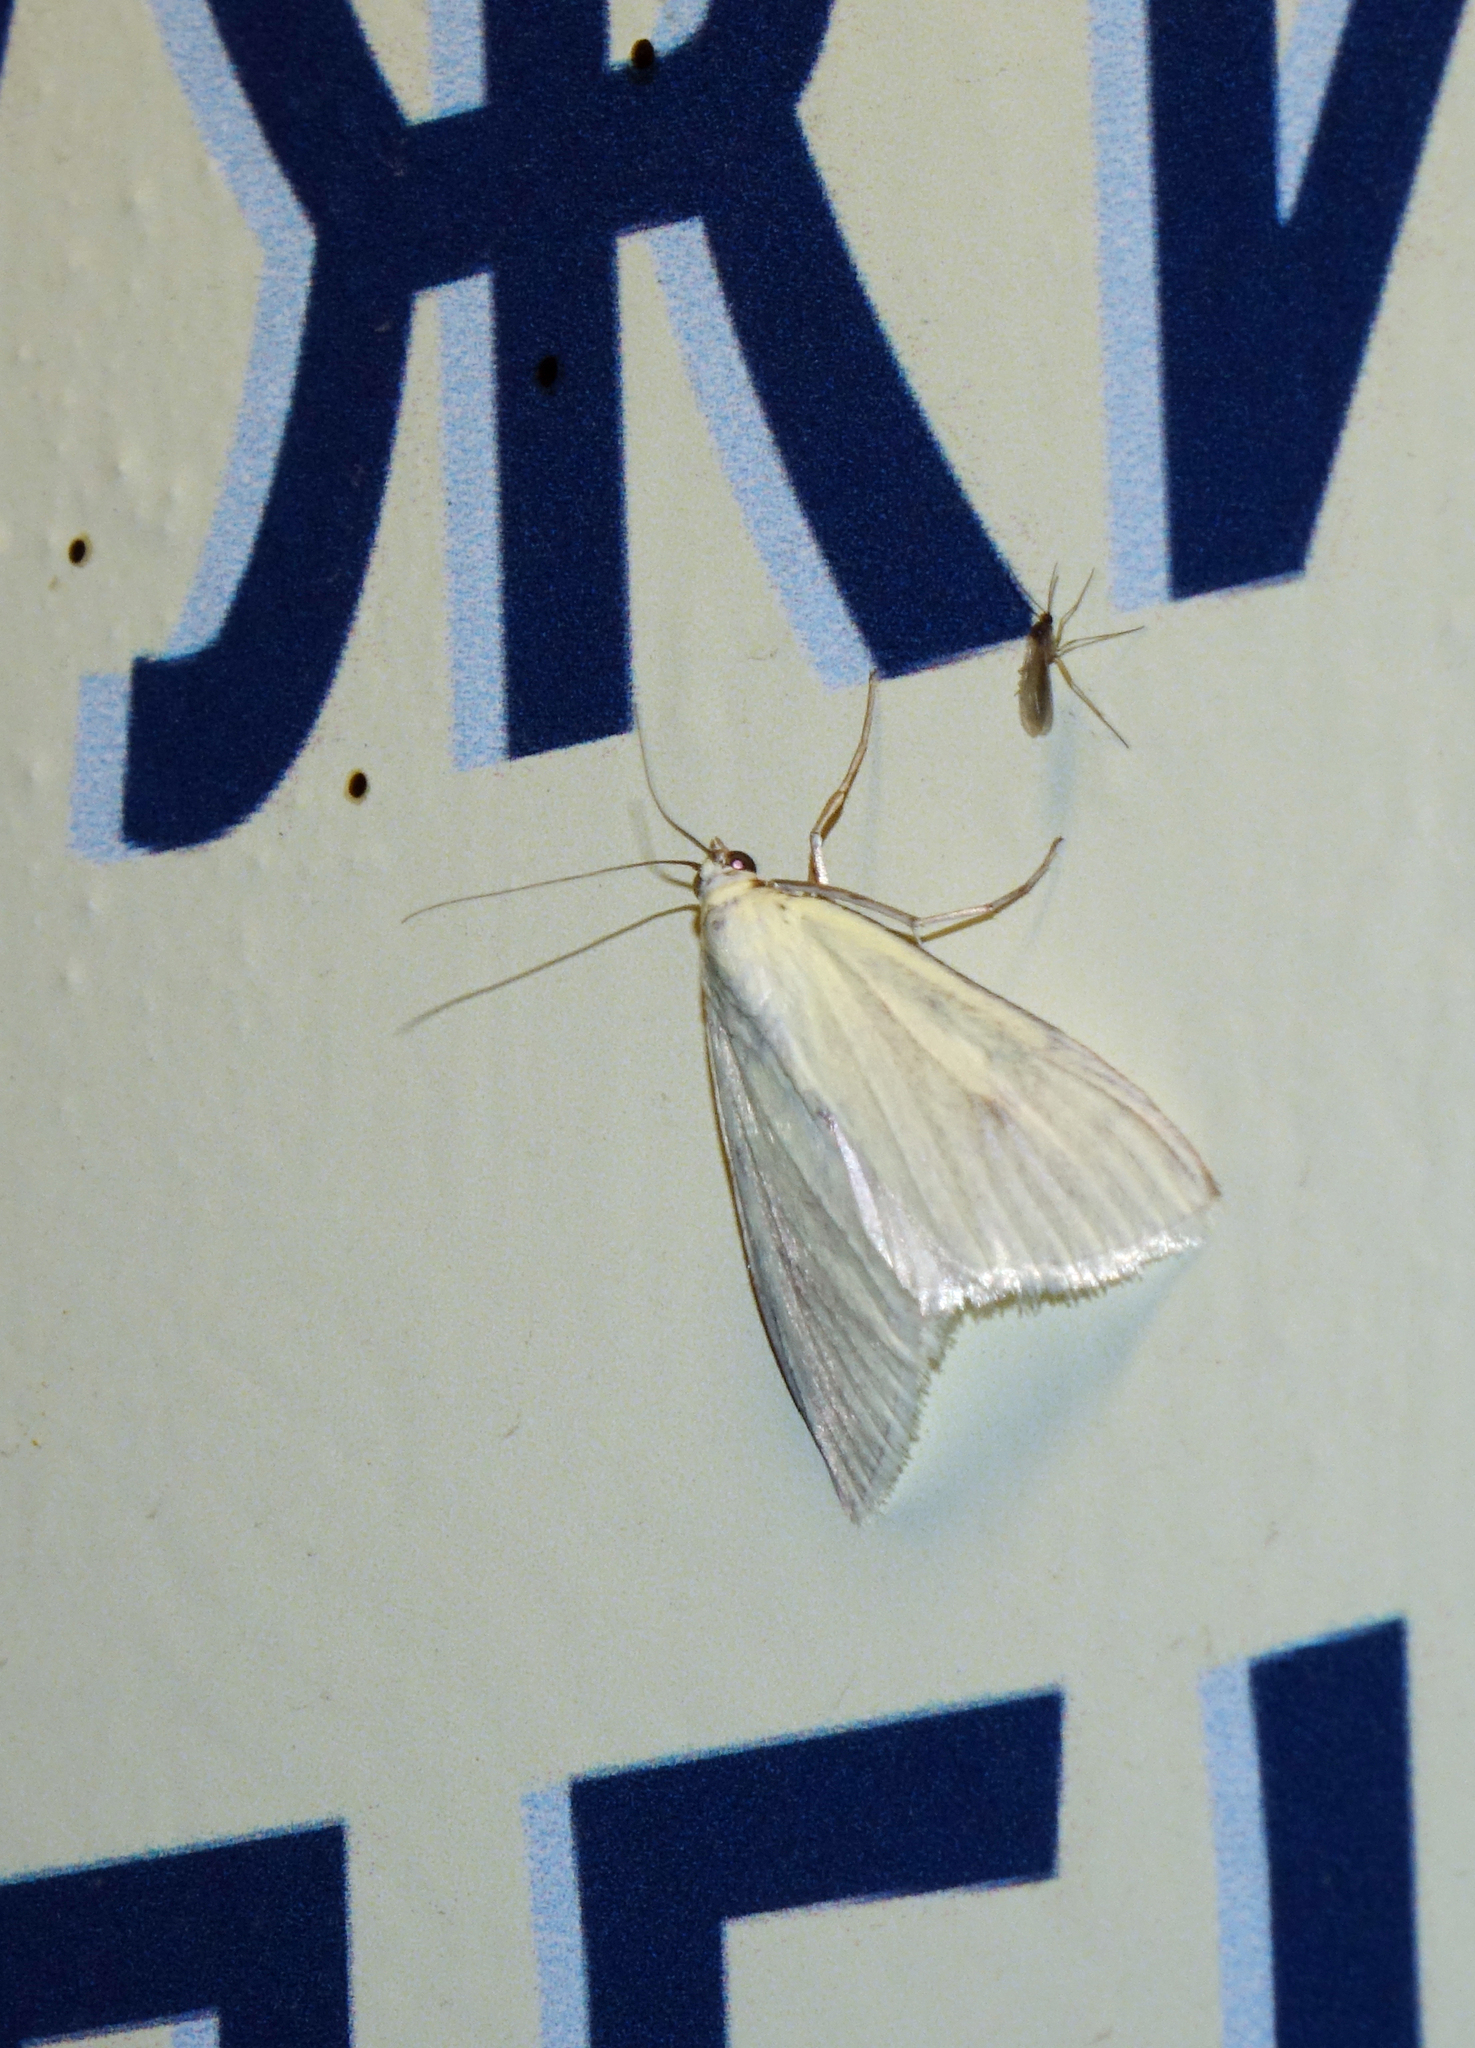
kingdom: Animalia
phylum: Arthropoda
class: Insecta
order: Lepidoptera
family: Crambidae
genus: Sitochroa
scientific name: Sitochroa palealis
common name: Greenish-yellow sitochroa moth
